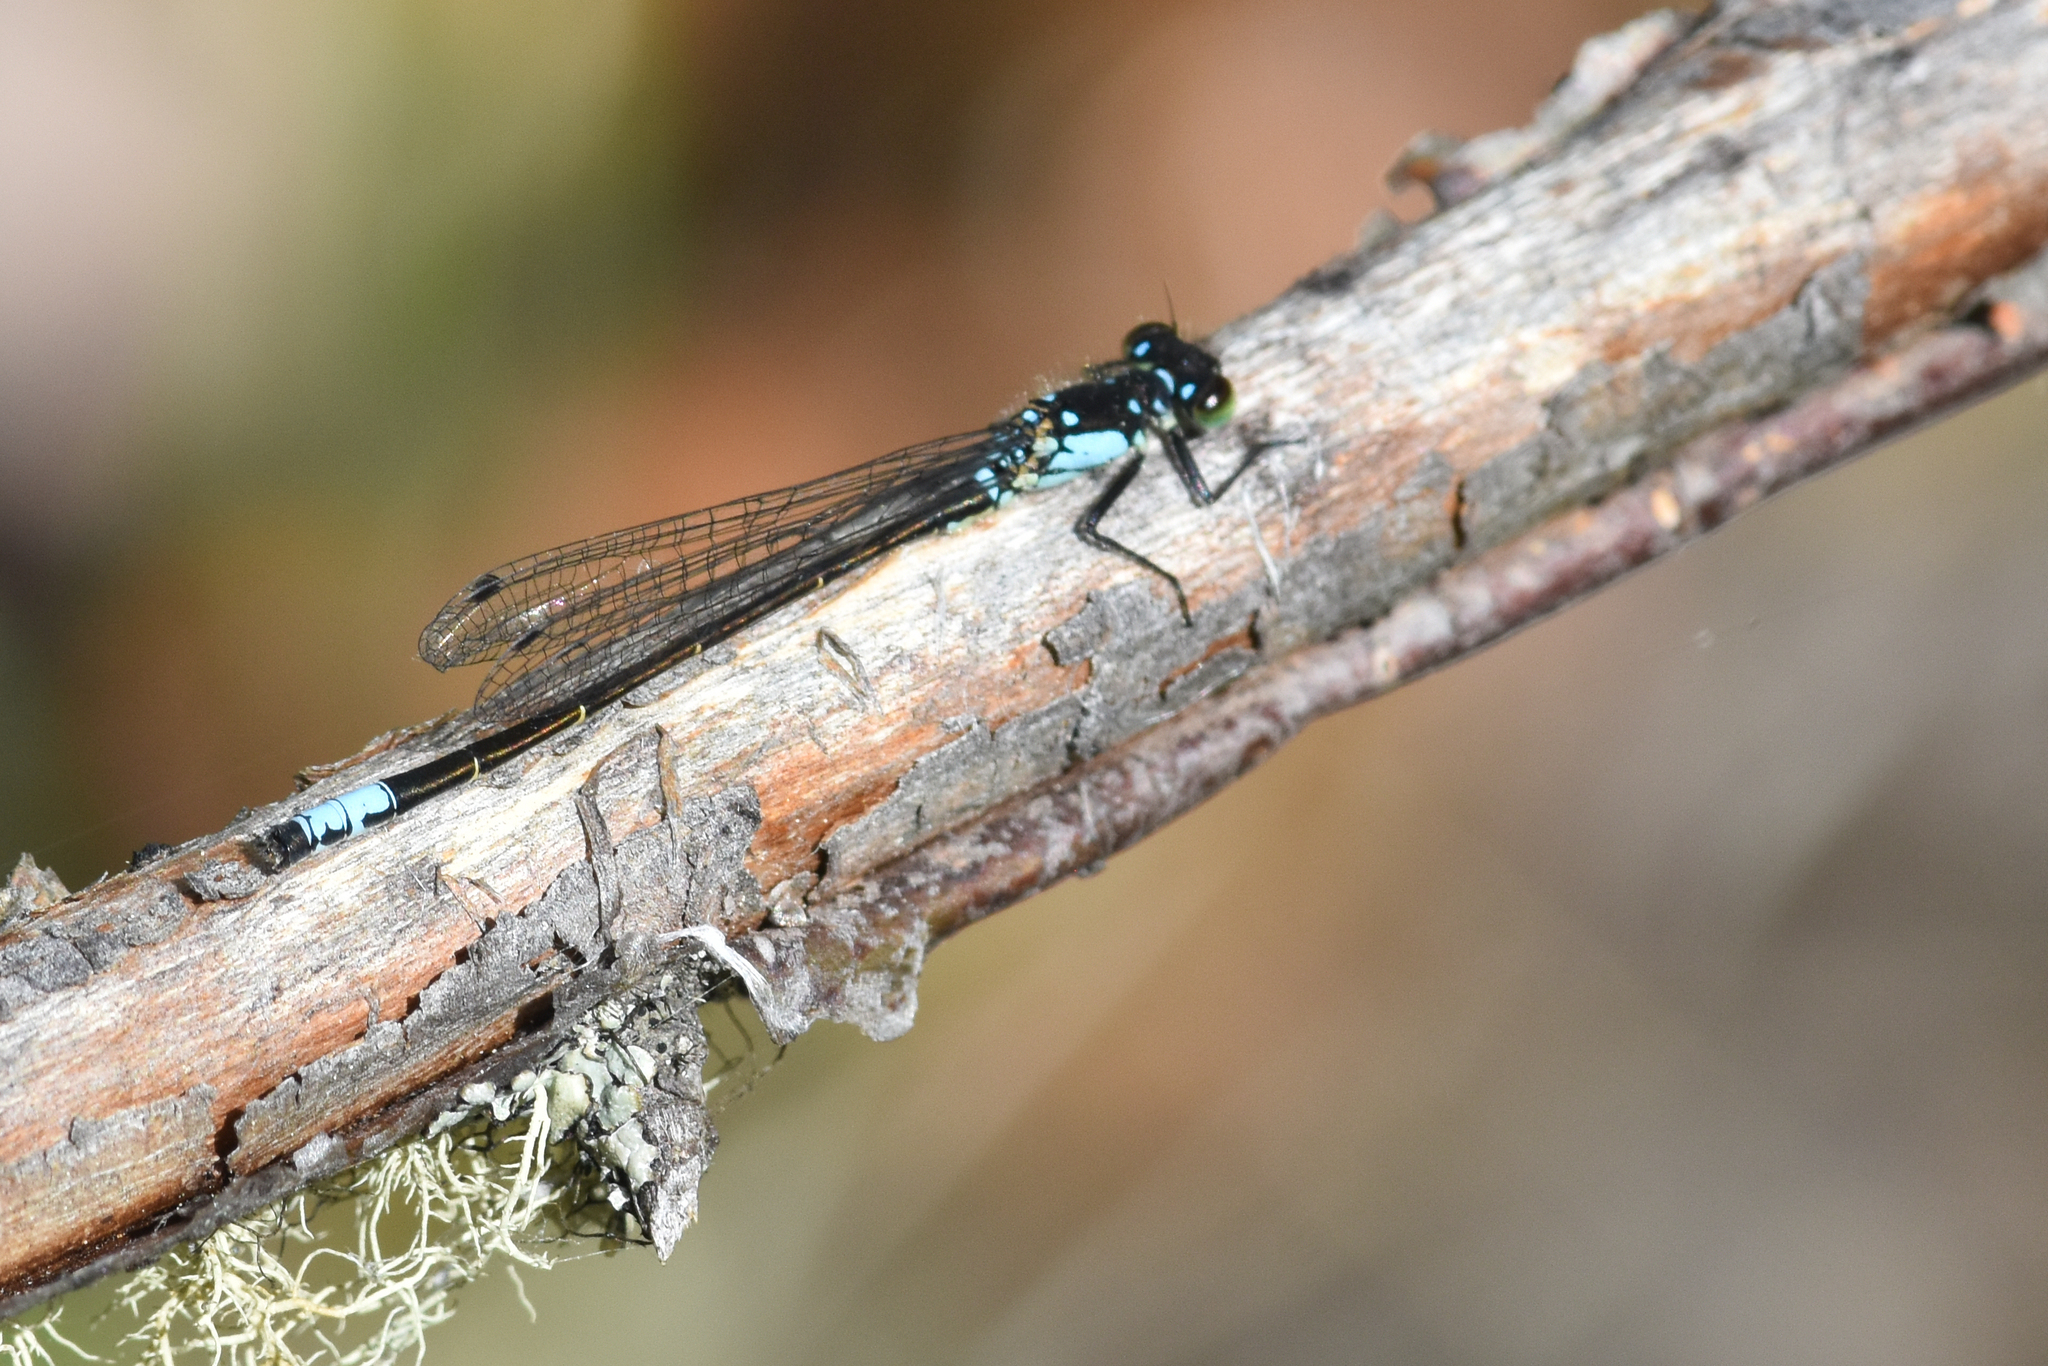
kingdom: Animalia
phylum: Arthropoda
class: Insecta
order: Odonata
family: Coenagrionidae
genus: Ischnura
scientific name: Ischnura cervula
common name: Pacific forktail
